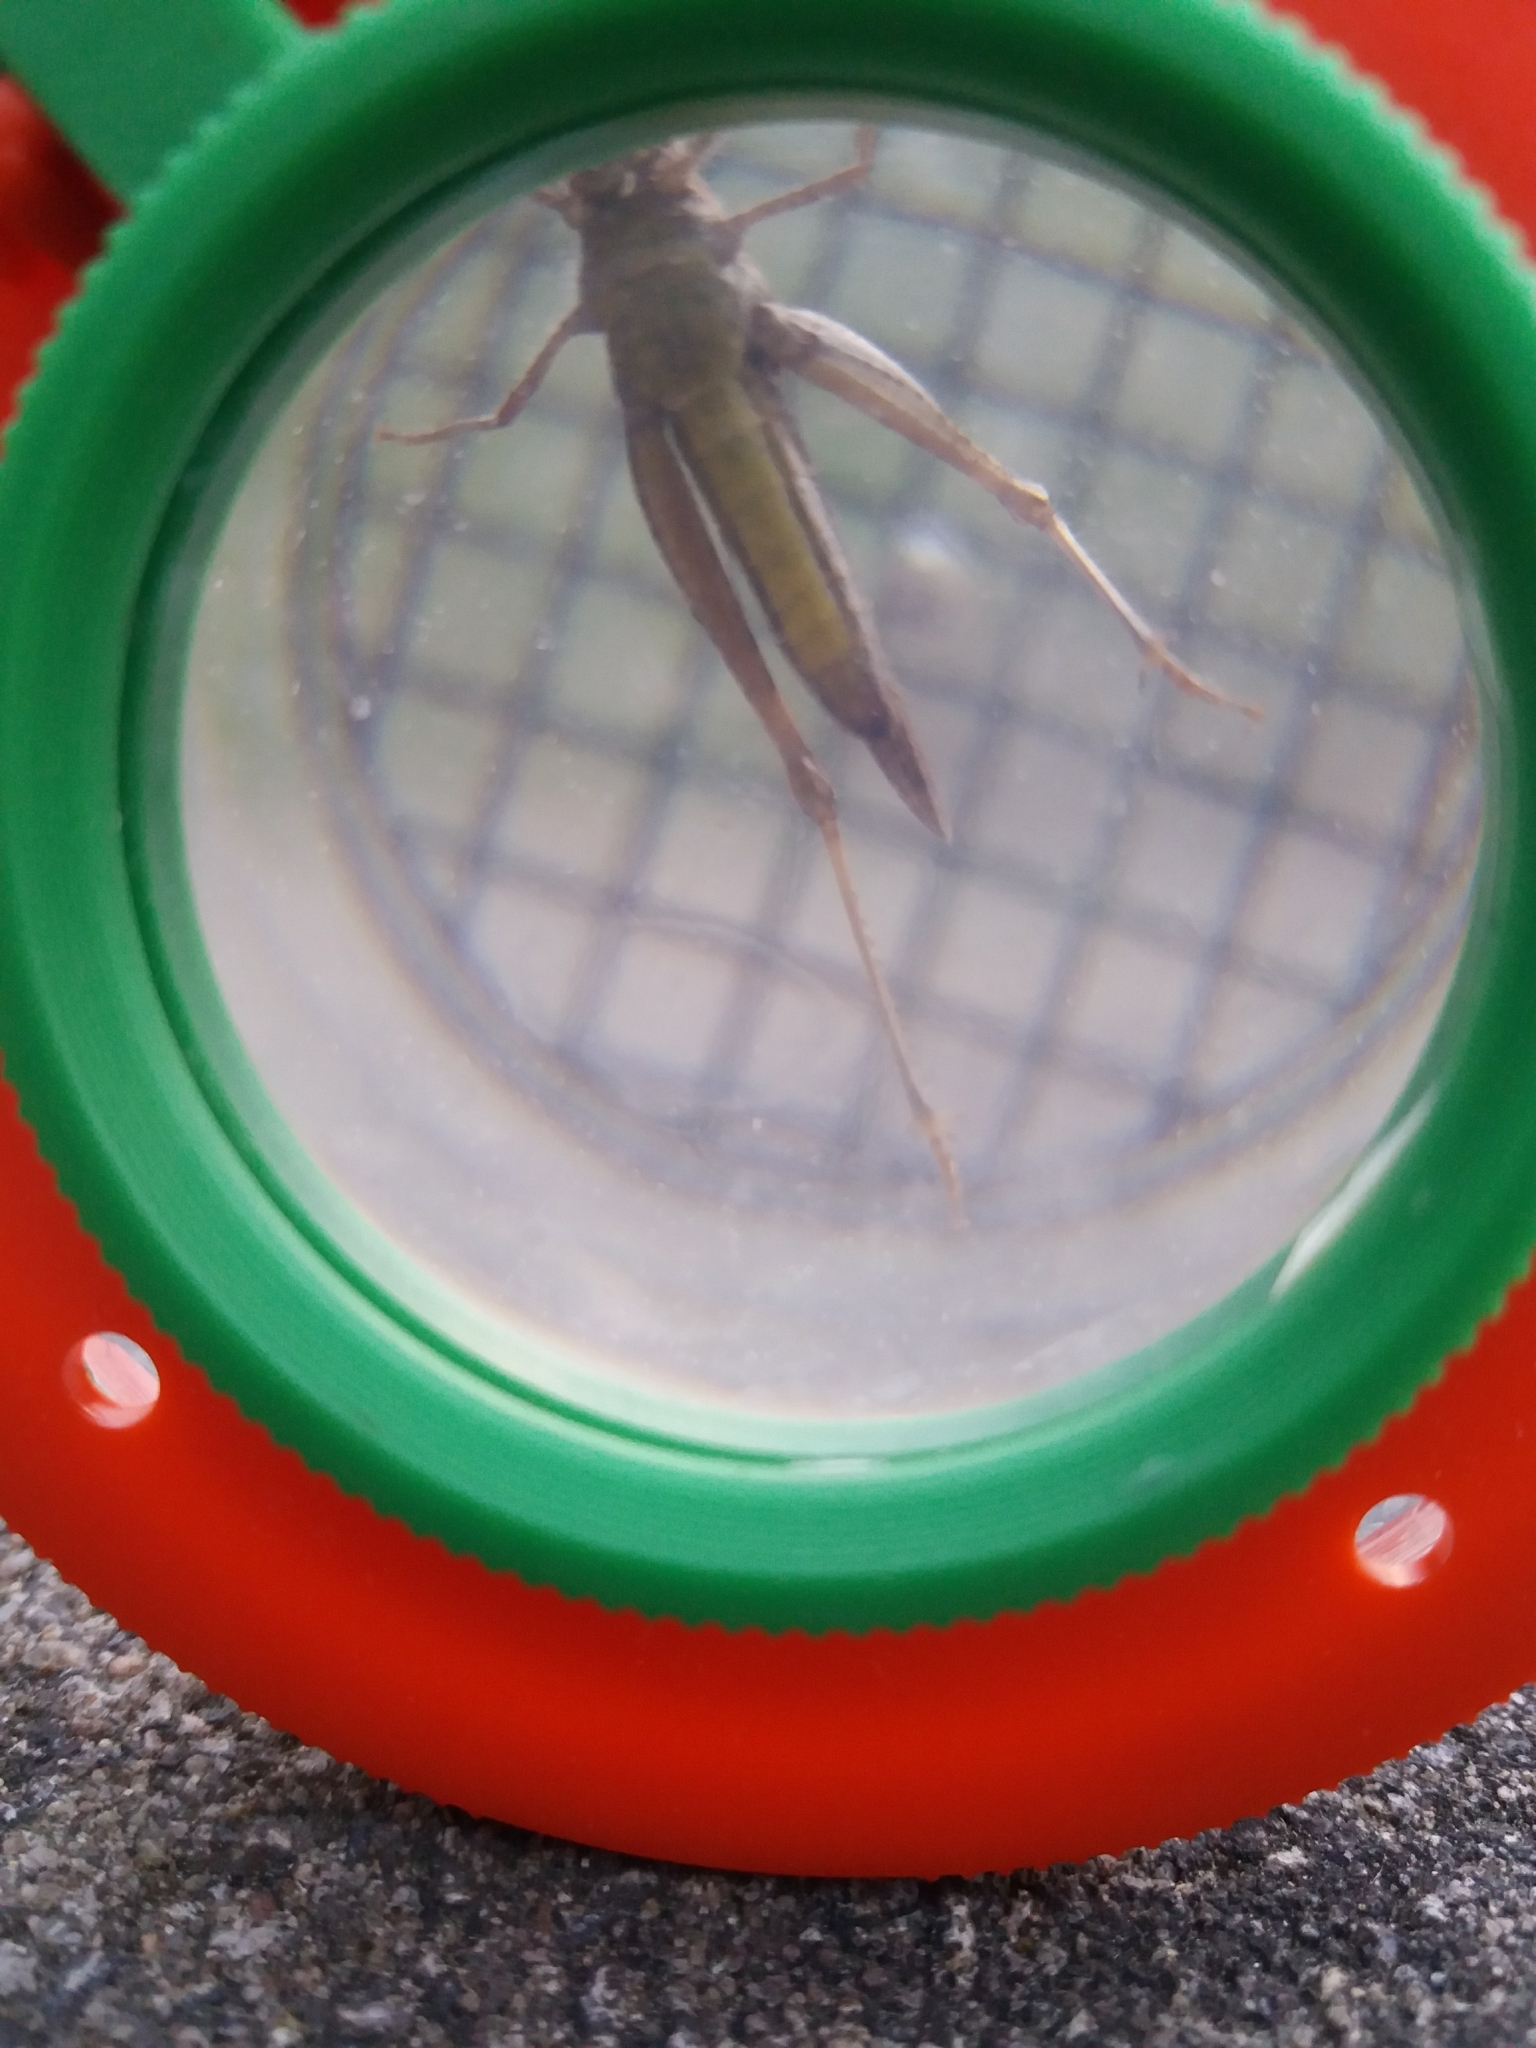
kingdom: Animalia
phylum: Arthropoda
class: Insecta
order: Orthoptera
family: Acrididae
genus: Chorthippus
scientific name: Chorthippus brunneus
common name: Field grasshopper
